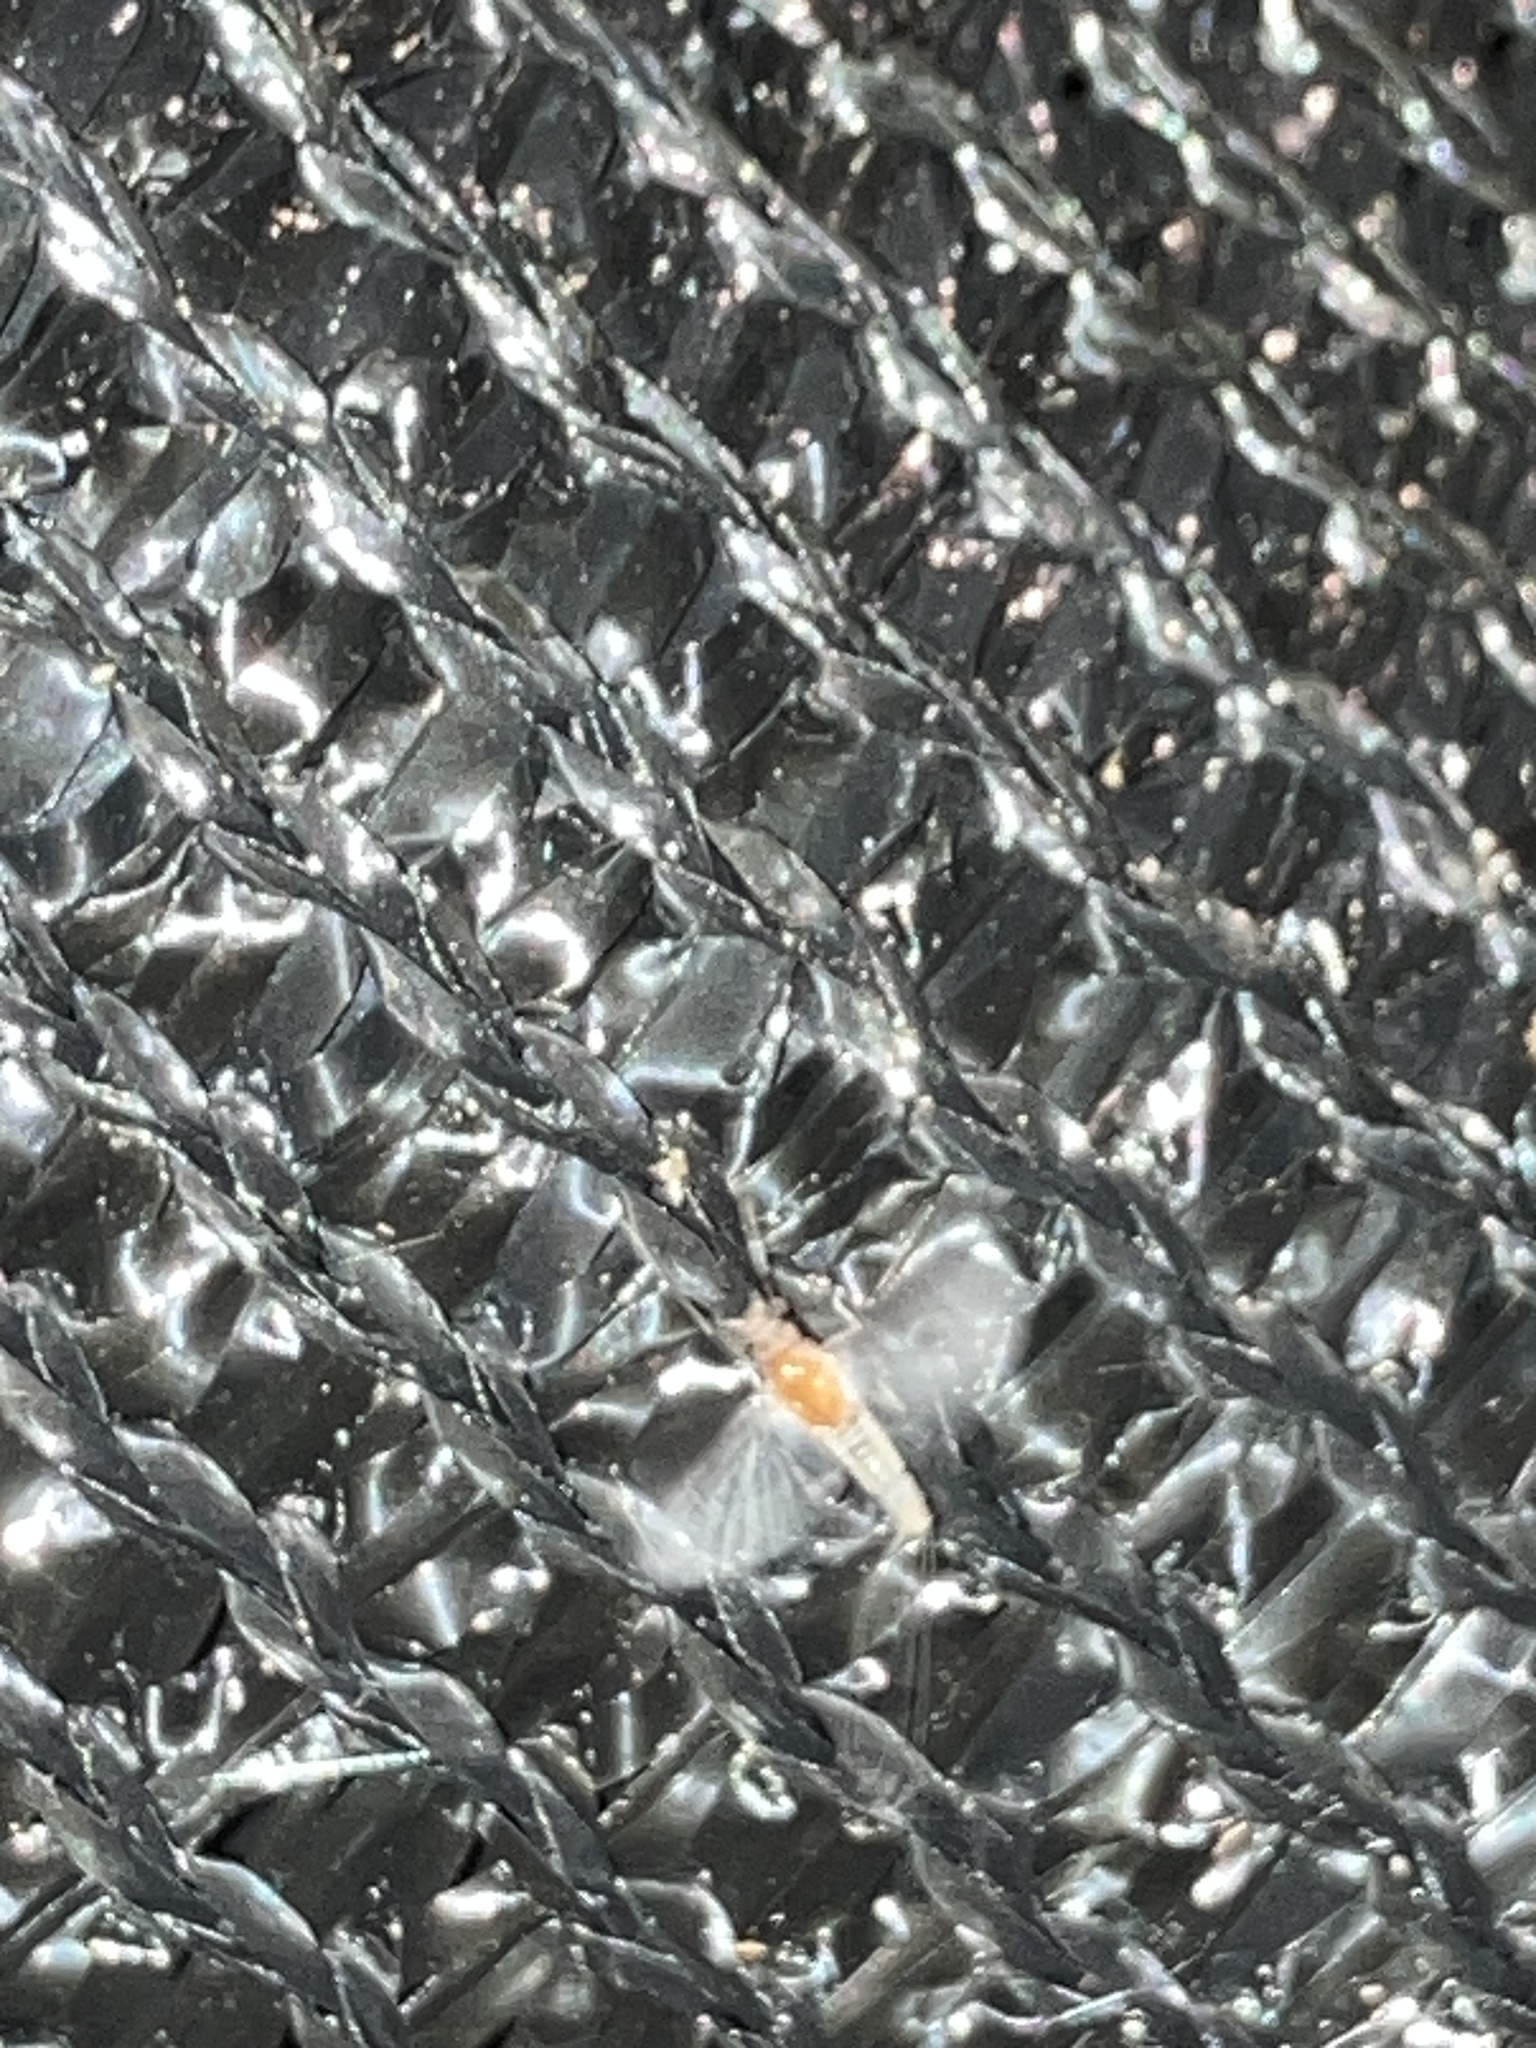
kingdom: Animalia
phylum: Arthropoda
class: Insecta
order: Ephemeroptera
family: Caenidae
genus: Caenis
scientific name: Caenis
